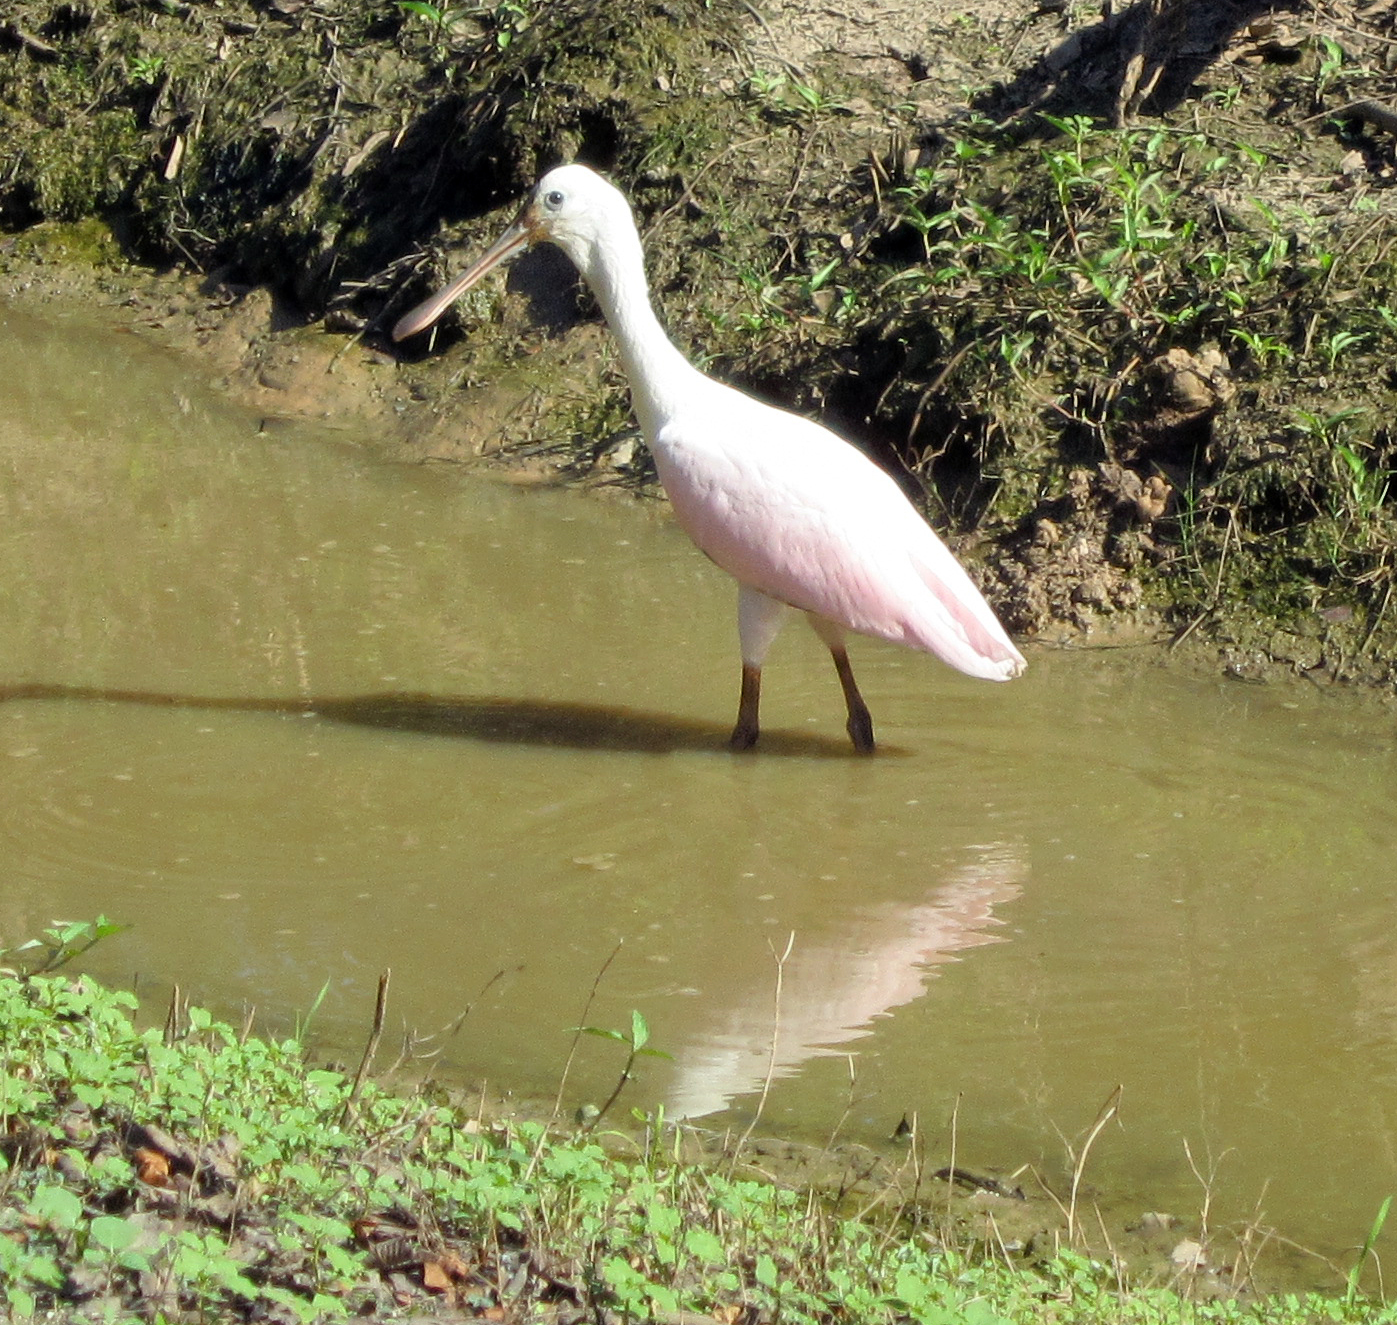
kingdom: Animalia
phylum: Chordata
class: Aves
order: Pelecaniformes
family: Threskiornithidae
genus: Platalea
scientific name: Platalea ajaja
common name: Roseate spoonbill
